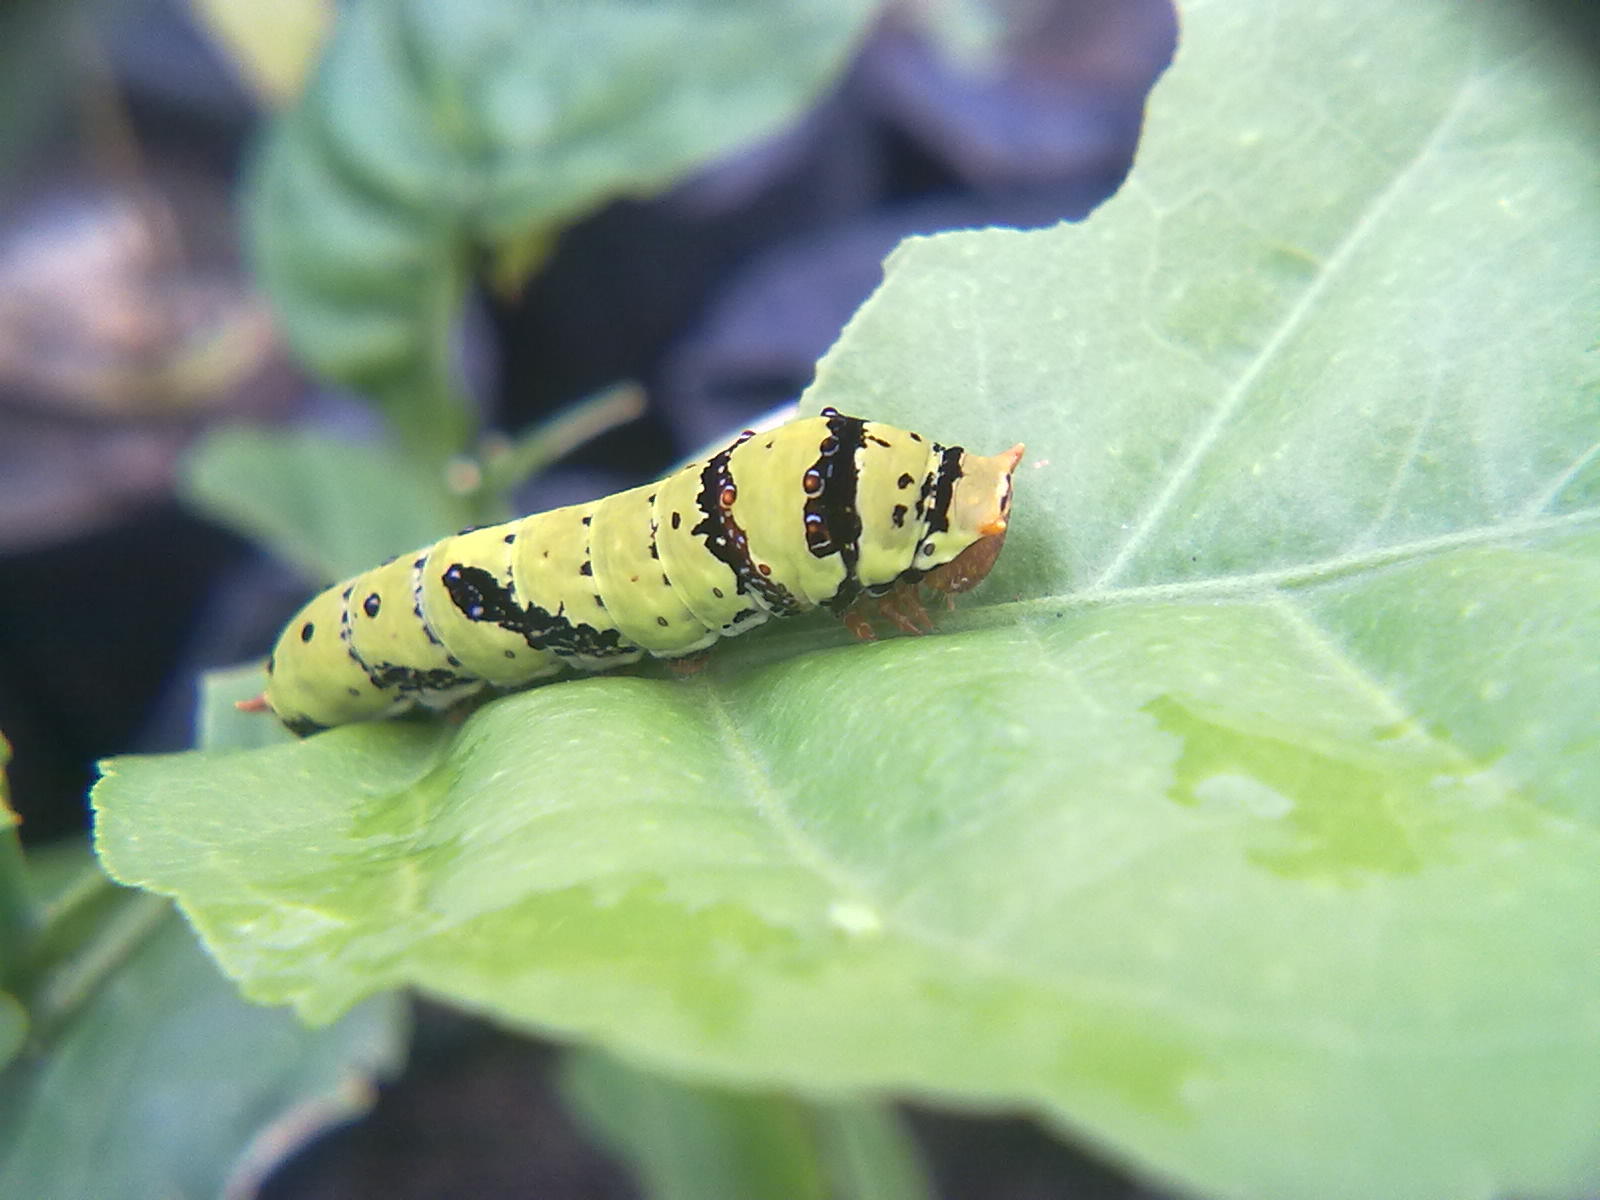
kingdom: Animalia
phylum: Arthropoda
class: Insecta
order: Lepidoptera
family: Papilionidae
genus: Papilio
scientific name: Papilio demoleus
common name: Lime butterfly
